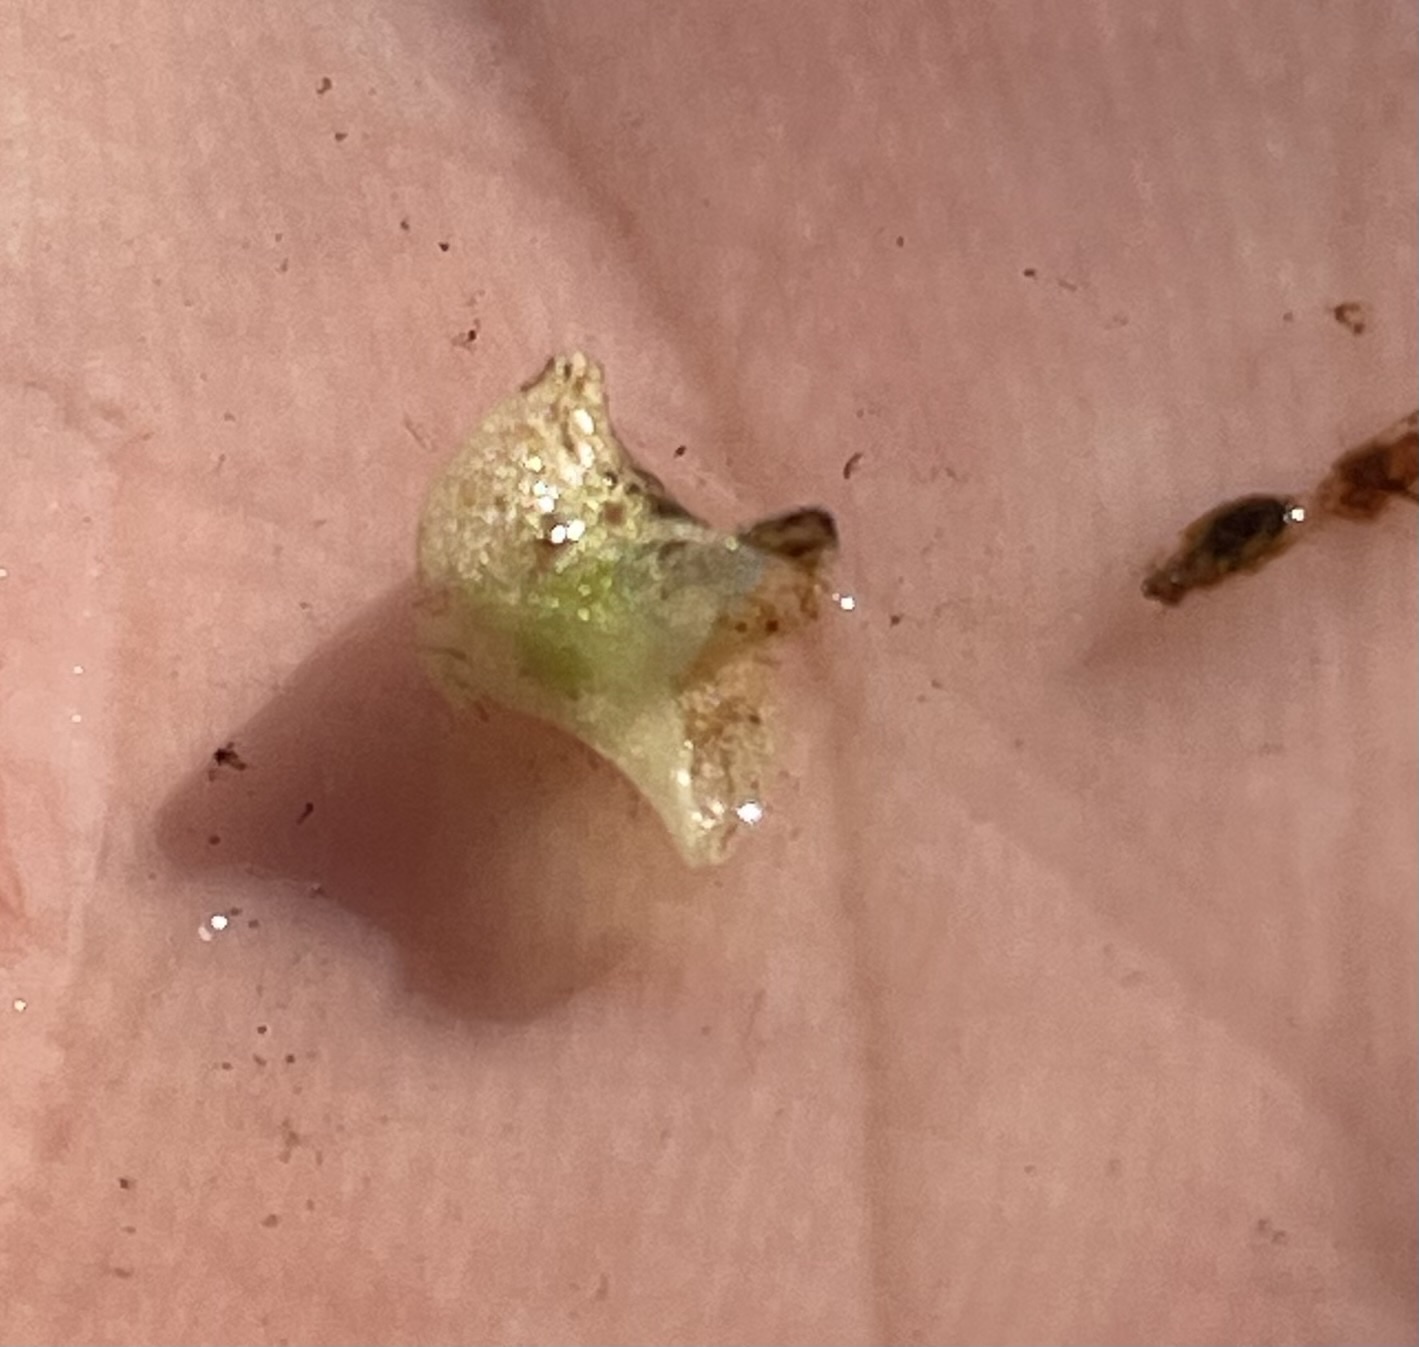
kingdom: Plantae
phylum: Tracheophyta
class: Liliopsida
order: Alismatales
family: Araceae
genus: Wolffiella
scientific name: Wolffiella welwitschii
